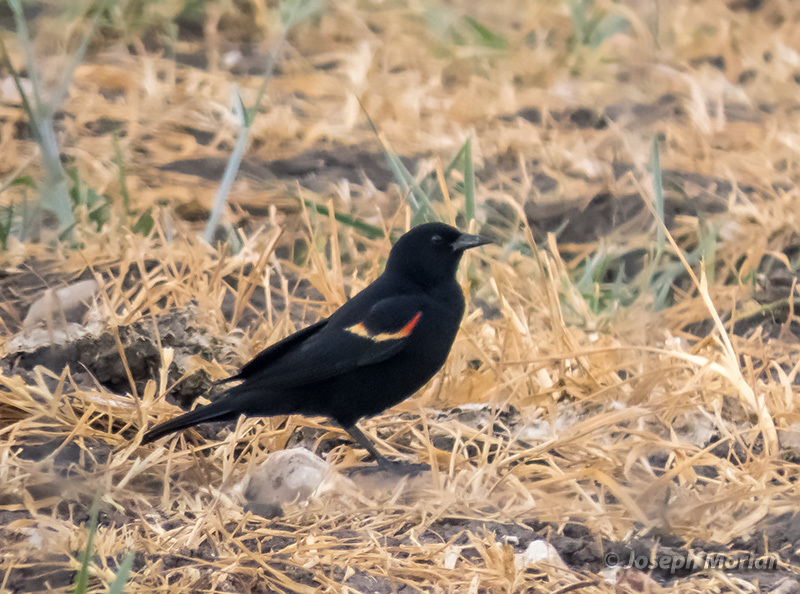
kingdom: Animalia
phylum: Chordata
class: Aves
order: Passeriformes
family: Icteridae
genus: Agelaius
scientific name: Agelaius phoeniceus
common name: Red-winged blackbird
